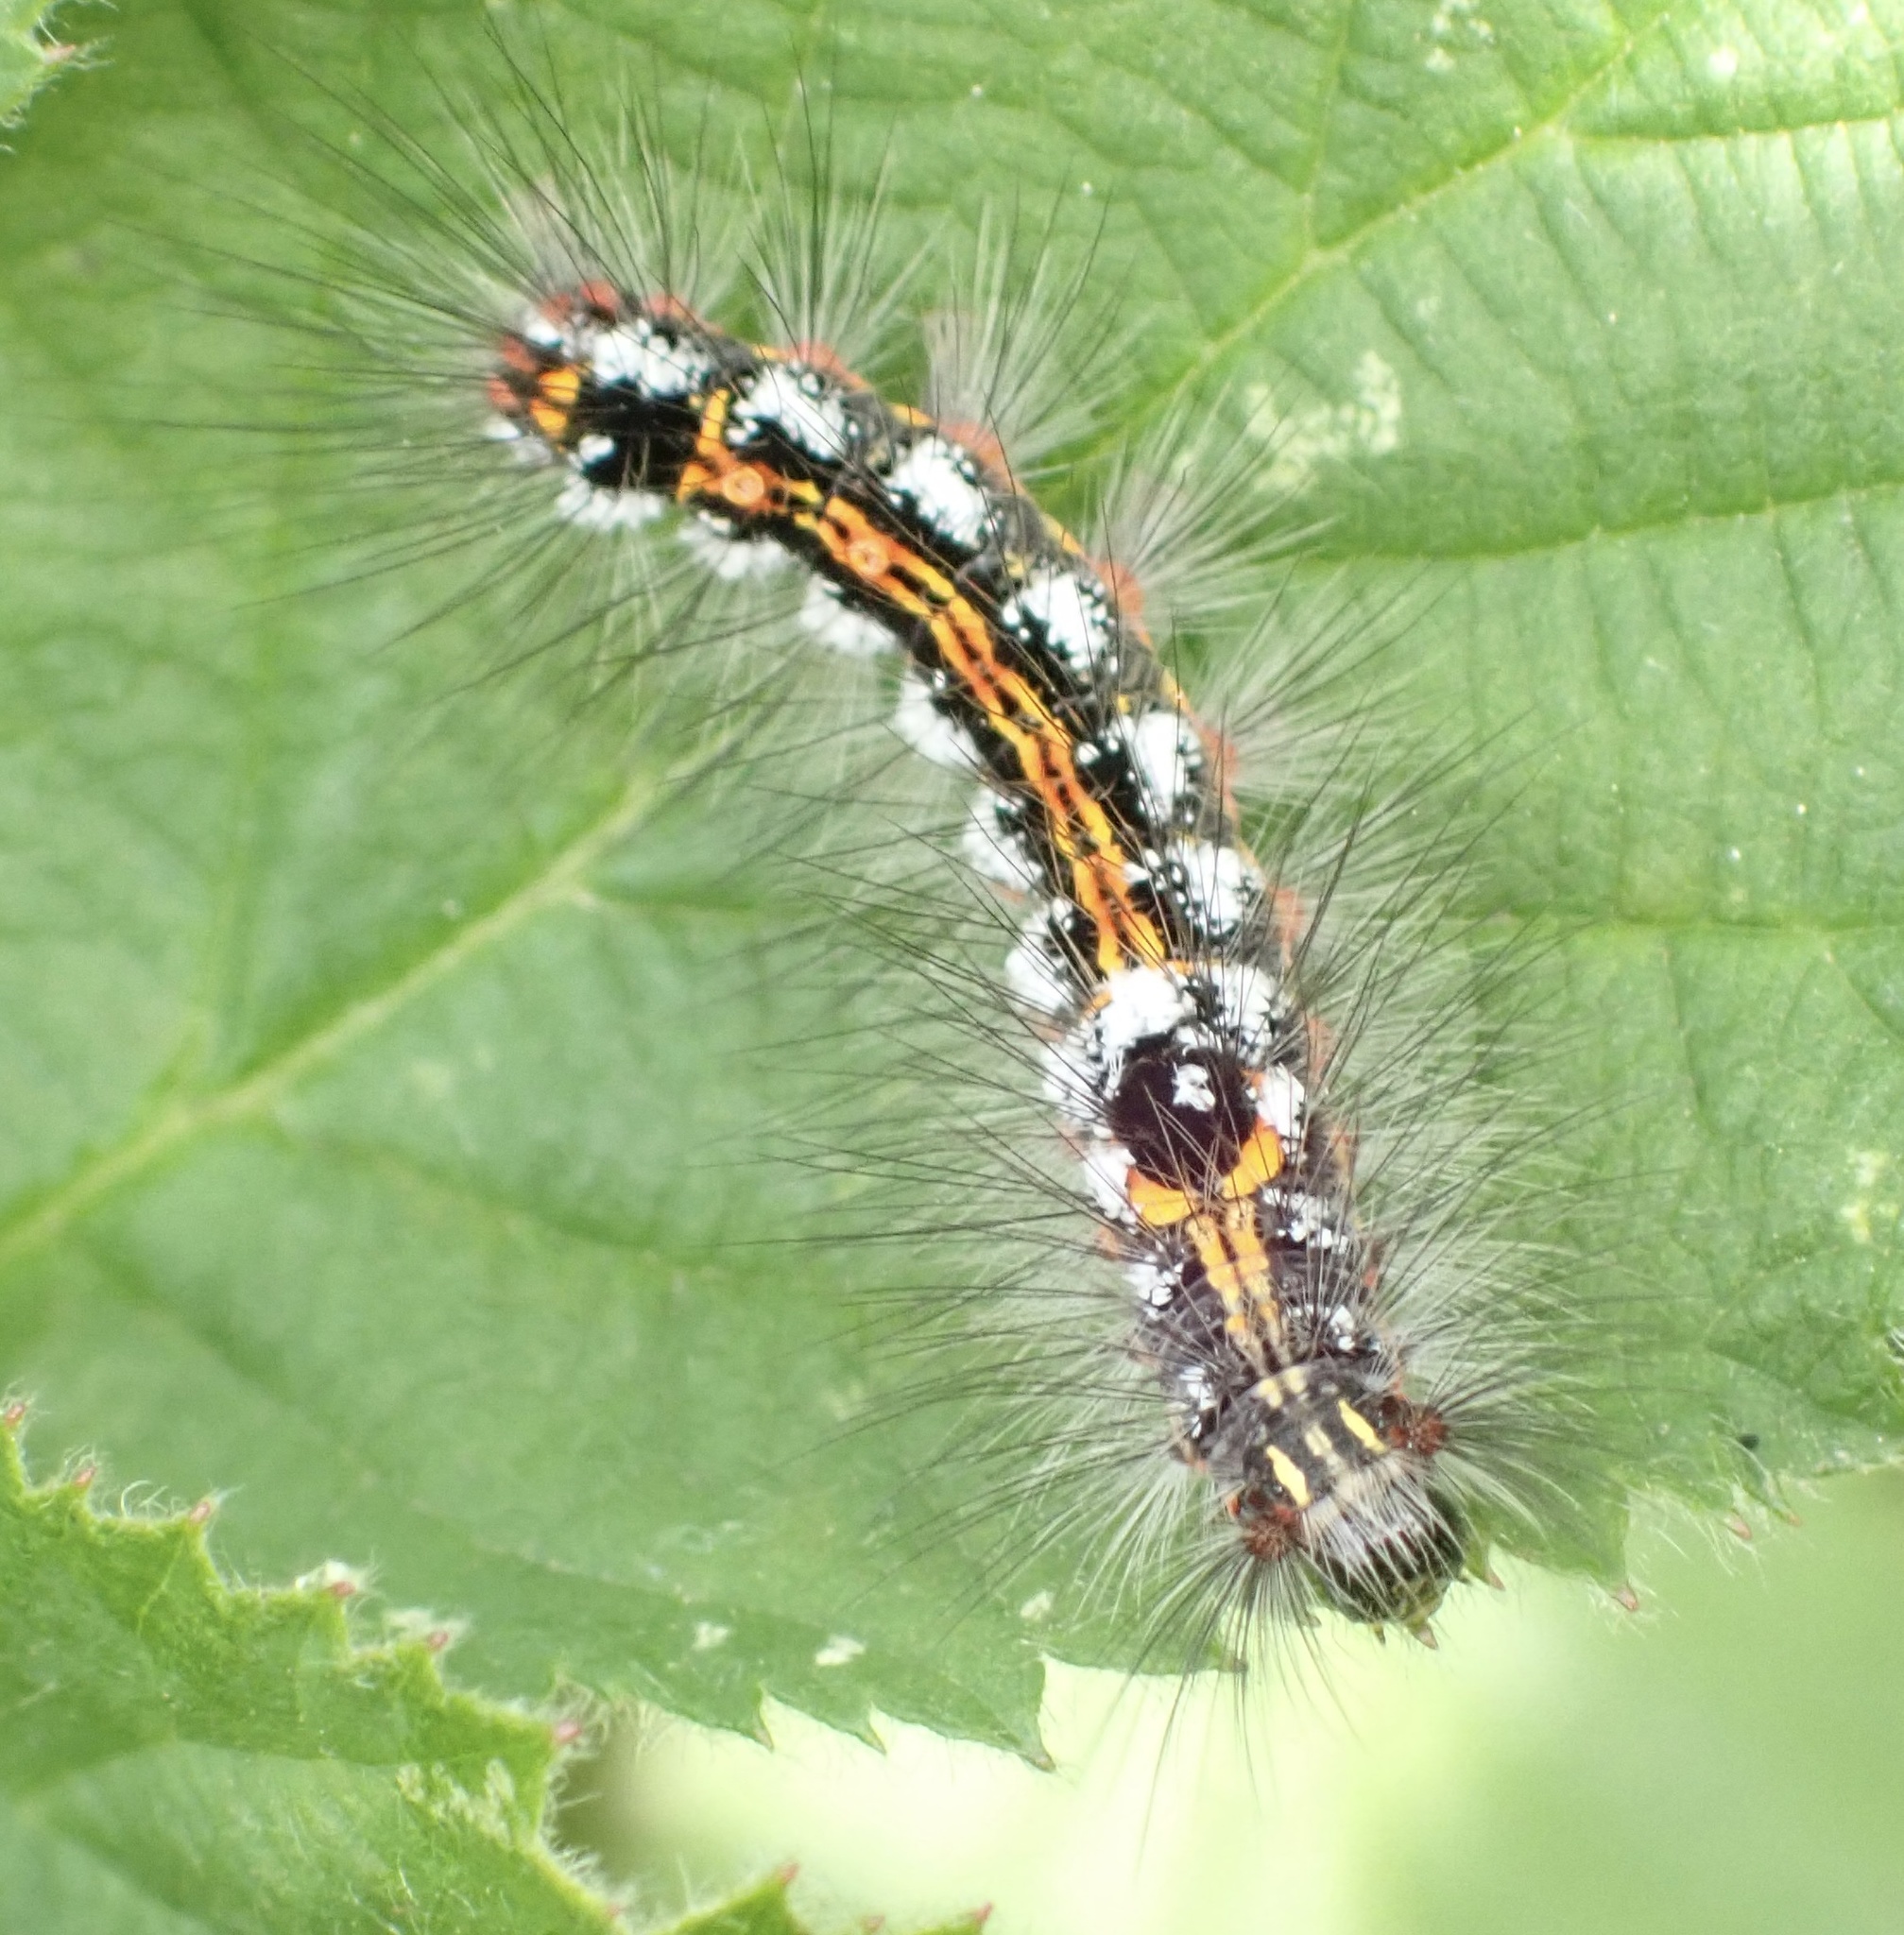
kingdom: Animalia
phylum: Arthropoda
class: Insecta
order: Lepidoptera
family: Erebidae
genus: Sphrageidus
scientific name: Sphrageidus similis
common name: Yellow-tail
